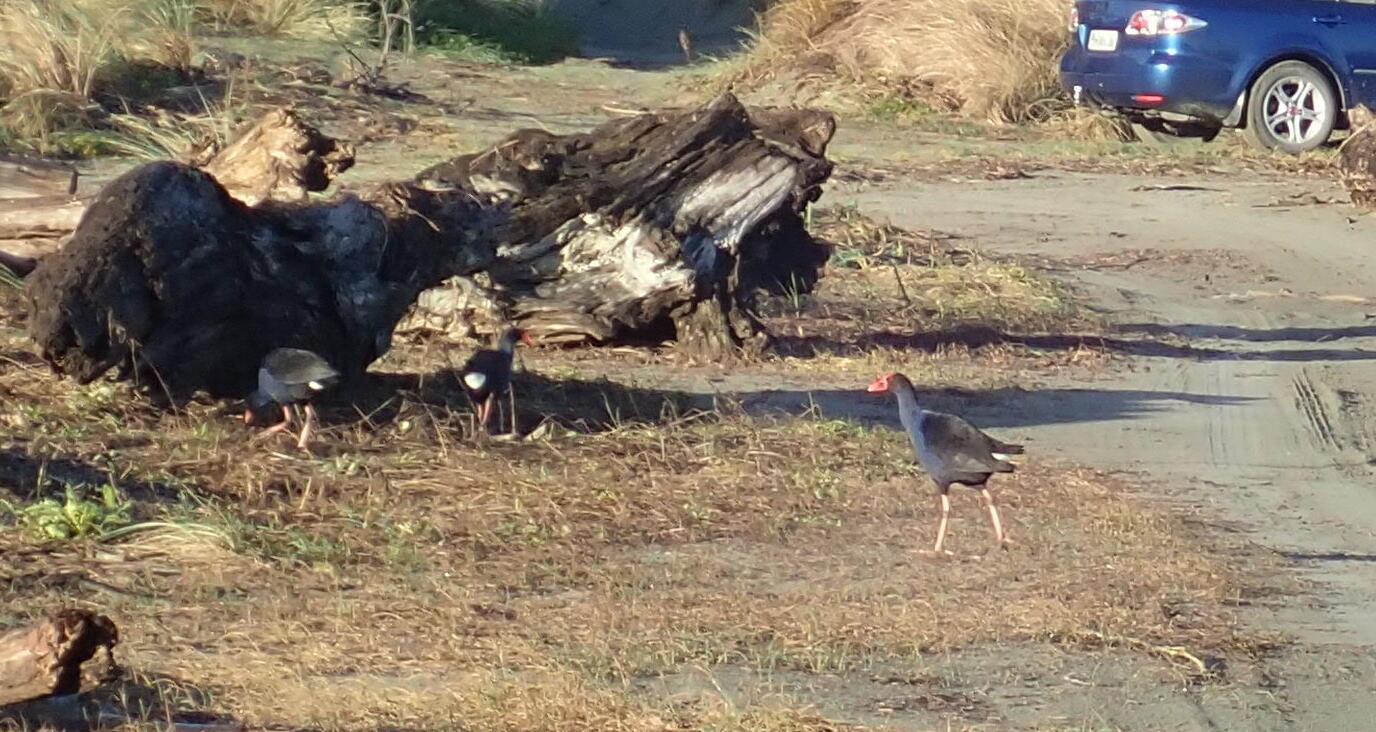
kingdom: Animalia
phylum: Chordata
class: Aves
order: Gruiformes
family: Rallidae
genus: Porphyrio
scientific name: Porphyrio melanotus
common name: Australasian swamphen
